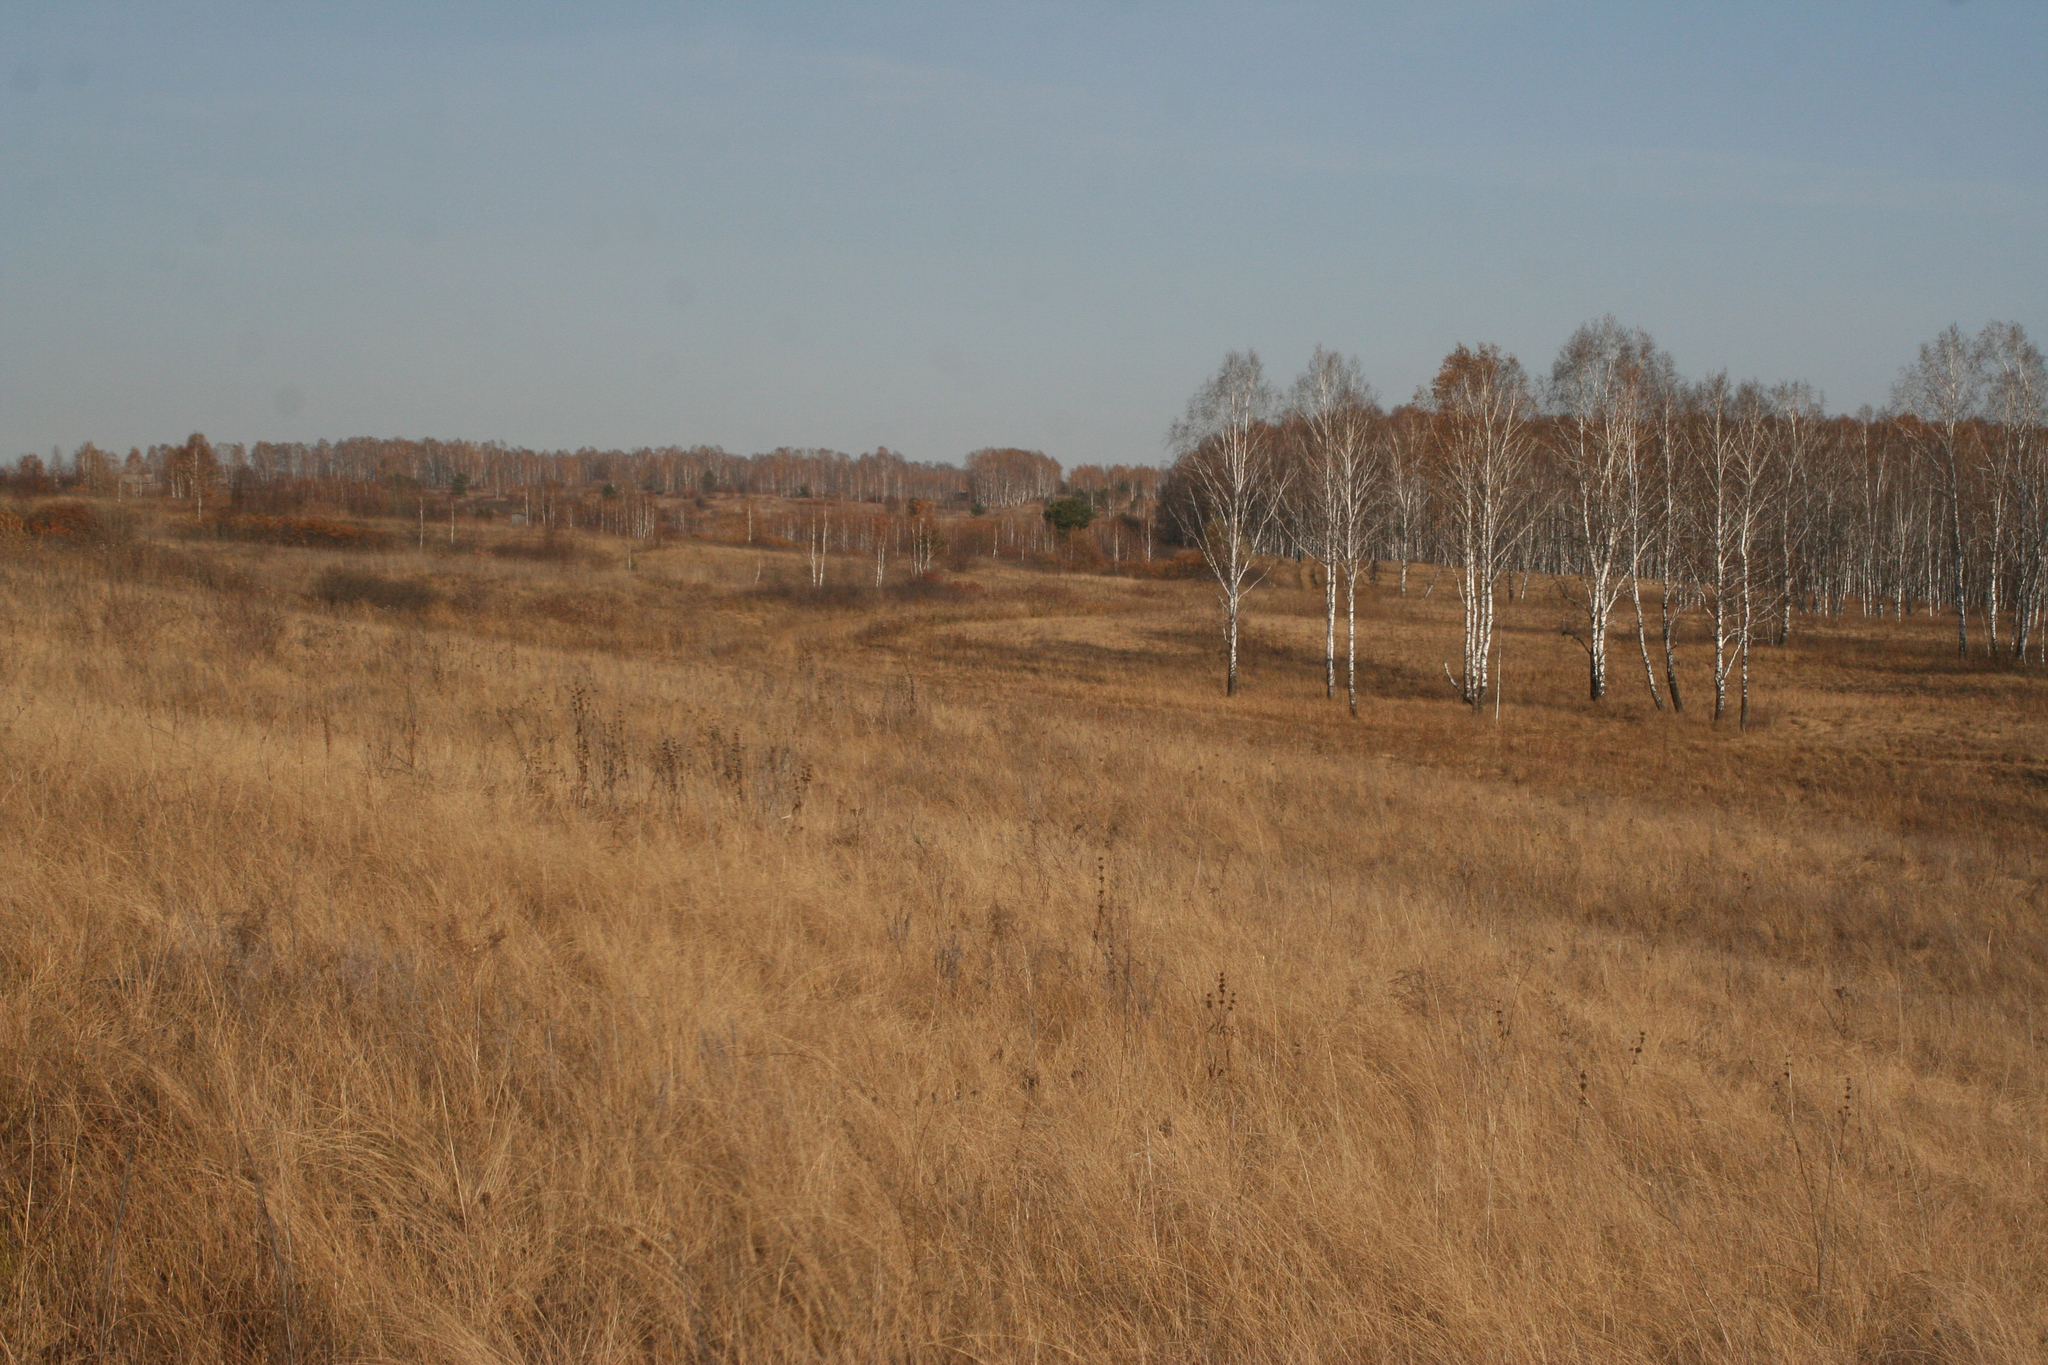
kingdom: Plantae
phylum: Tracheophyta
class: Magnoliopsida
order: Fagales
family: Betulaceae
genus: Betula
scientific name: Betula pendula
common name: Silver birch
